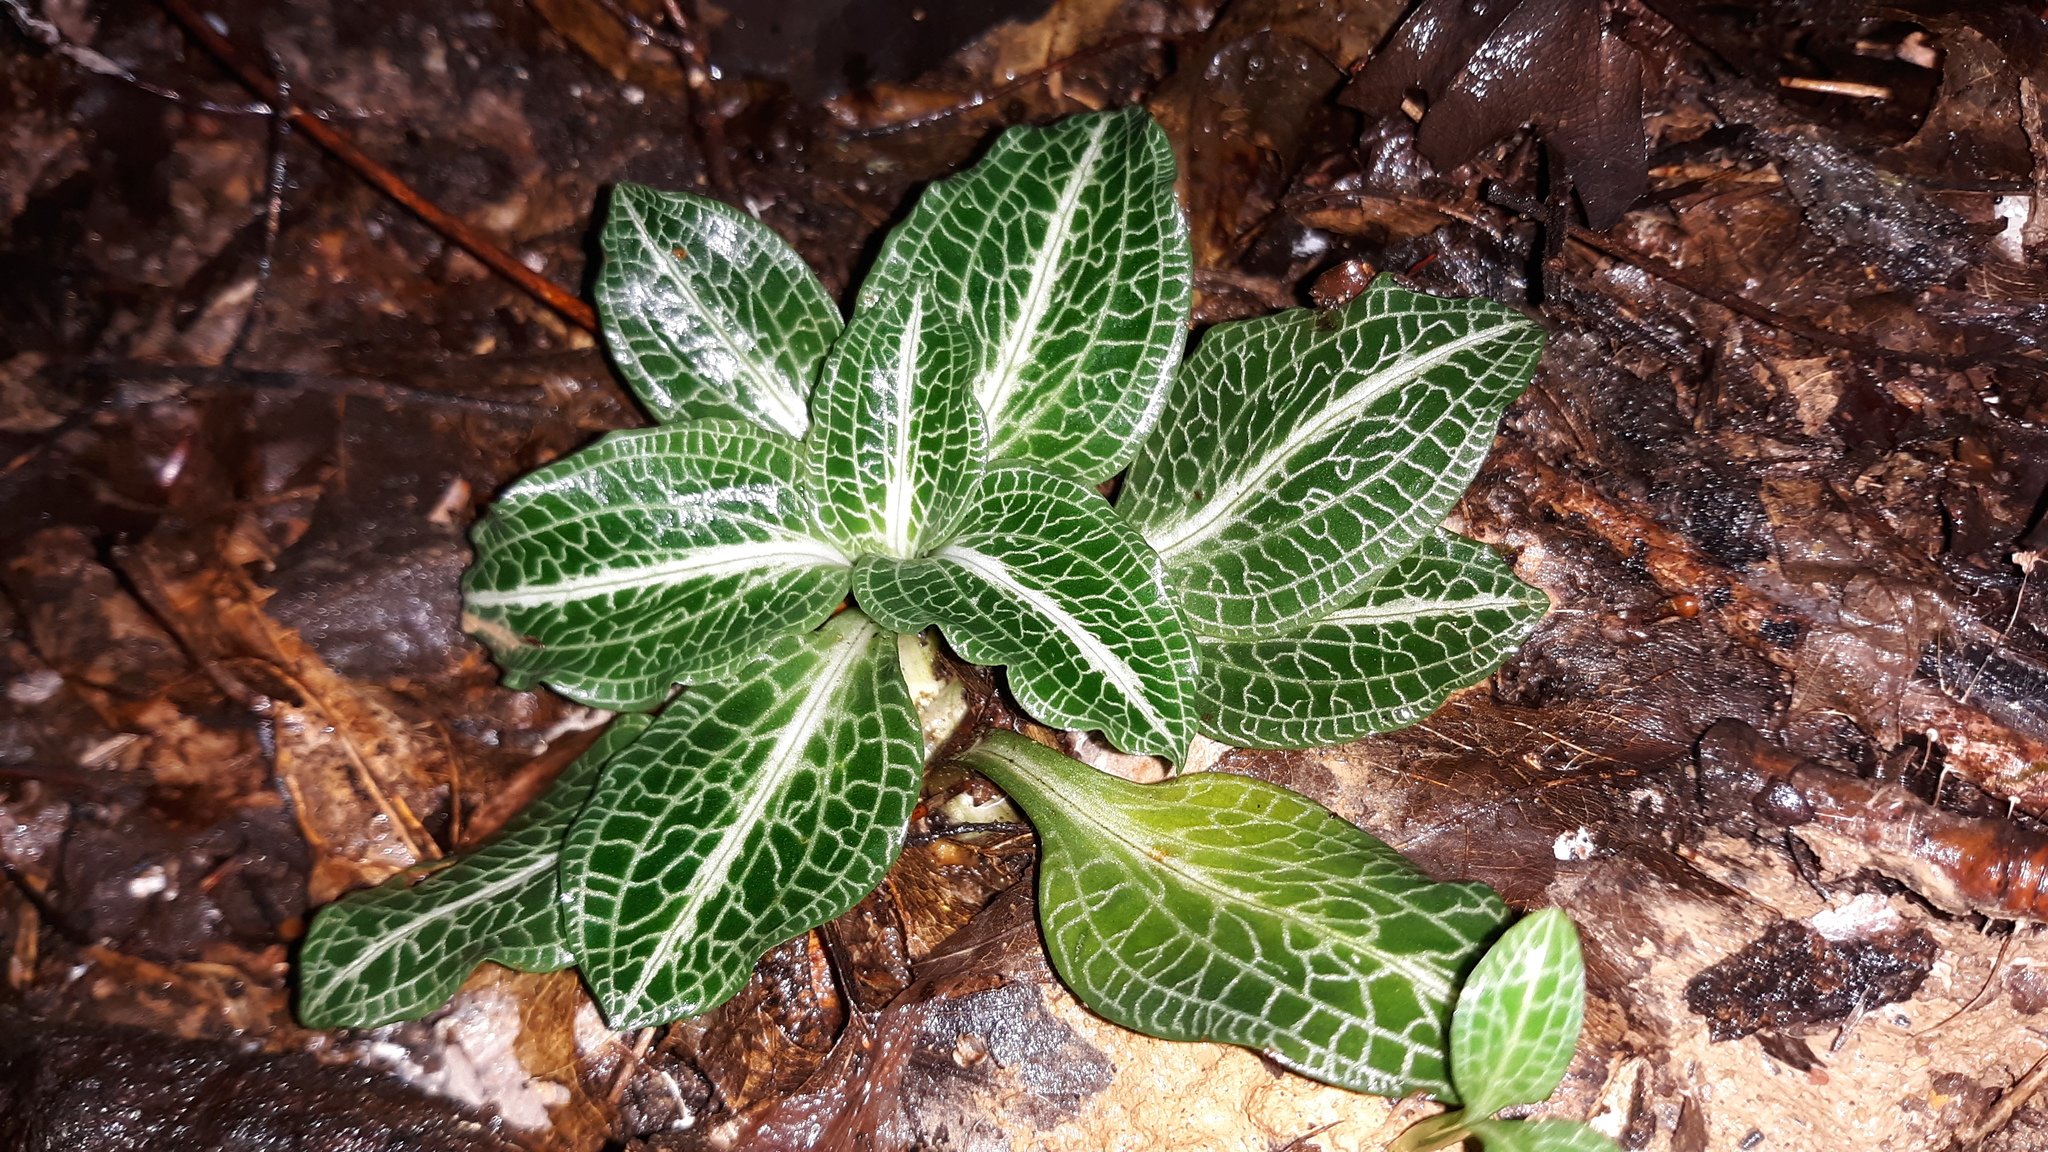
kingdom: Plantae
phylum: Tracheophyta
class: Liliopsida
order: Asparagales
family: Orchidaceae
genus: Goodyera
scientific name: Goodyera pubescens
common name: Downy rattlesnake-plantain
